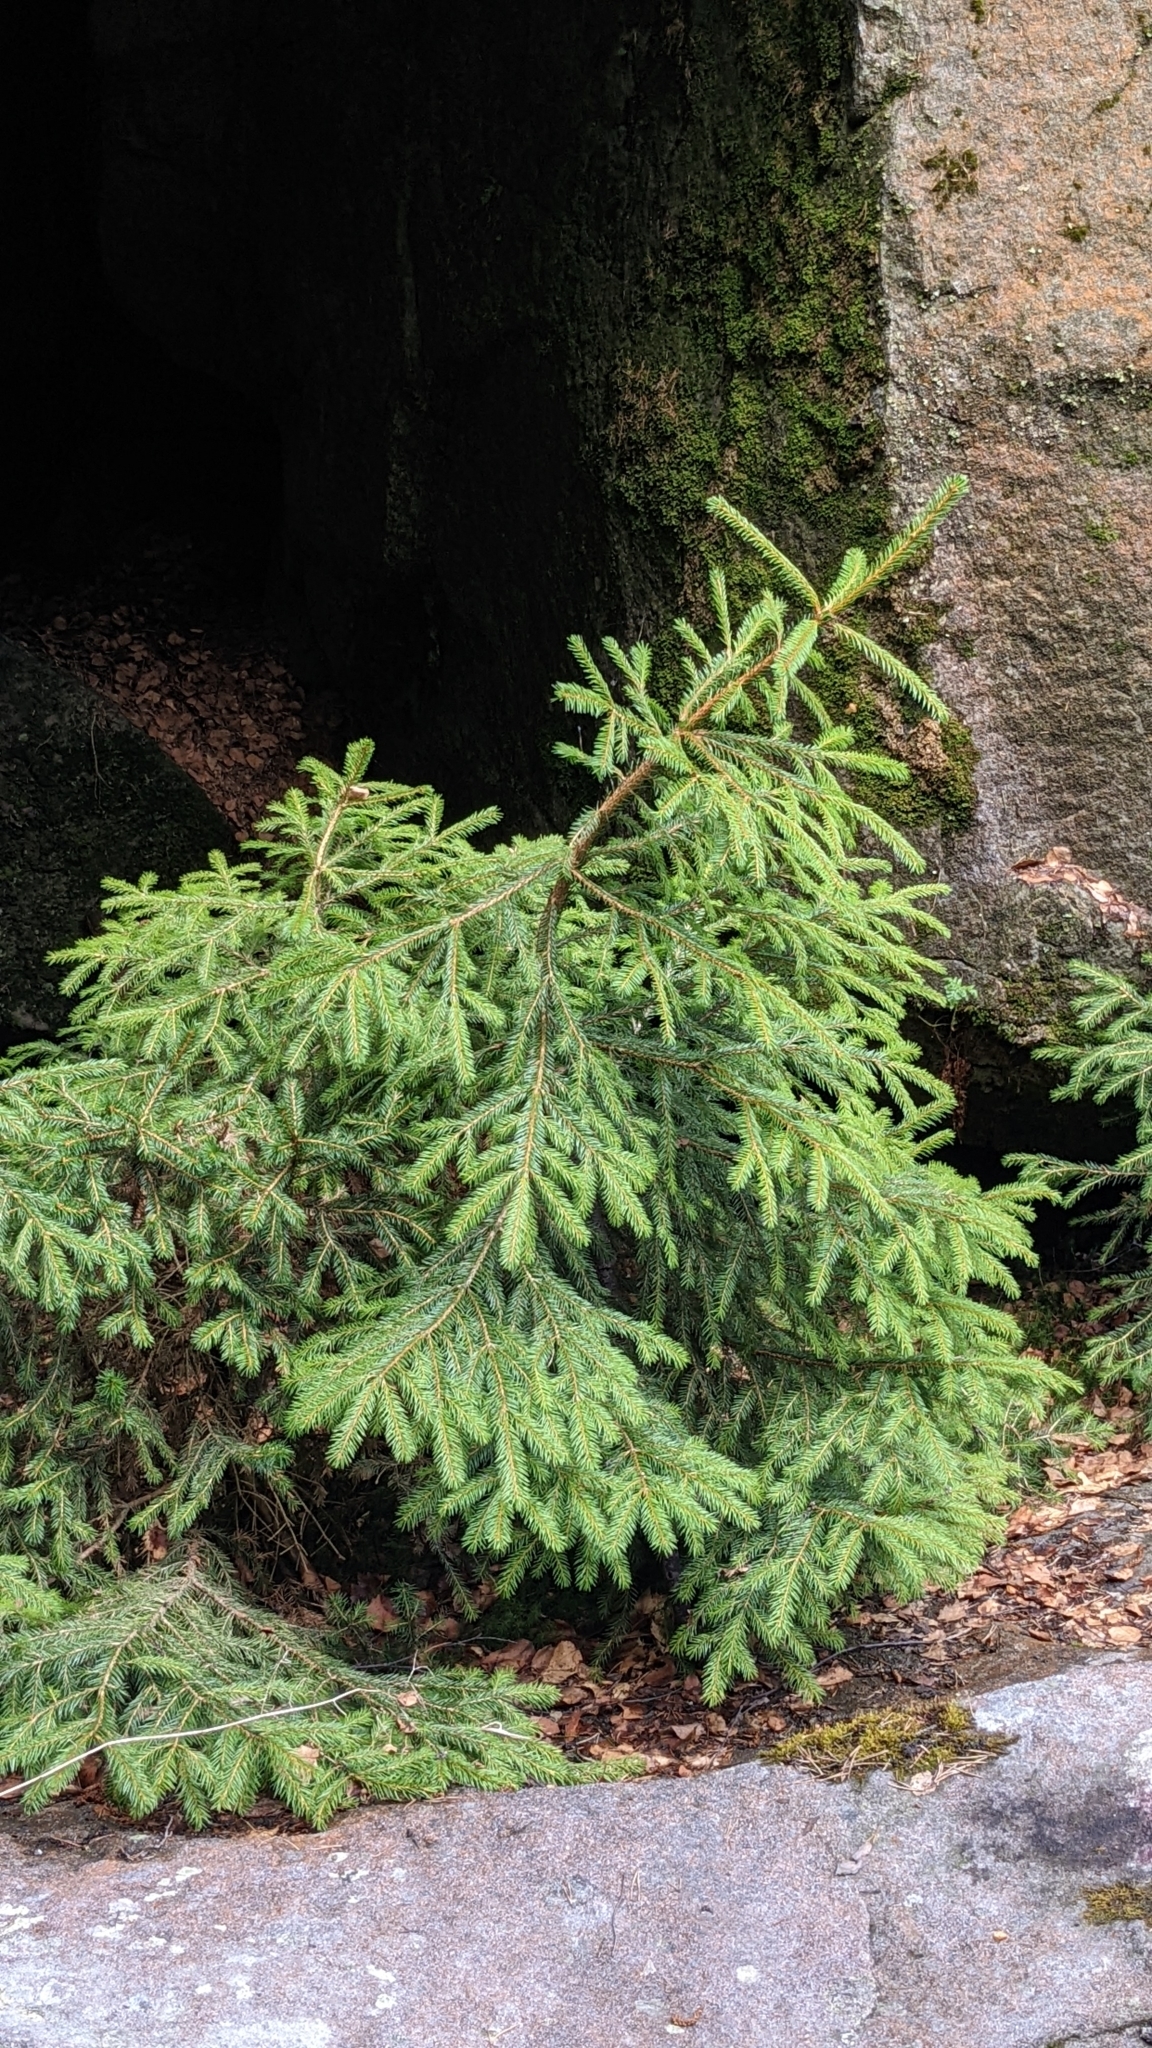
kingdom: Plantae
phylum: Tracheophyta
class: Pinopsida
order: Pinales
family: Pinaceae
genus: Picea
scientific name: Picea abies
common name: Norway spruce
